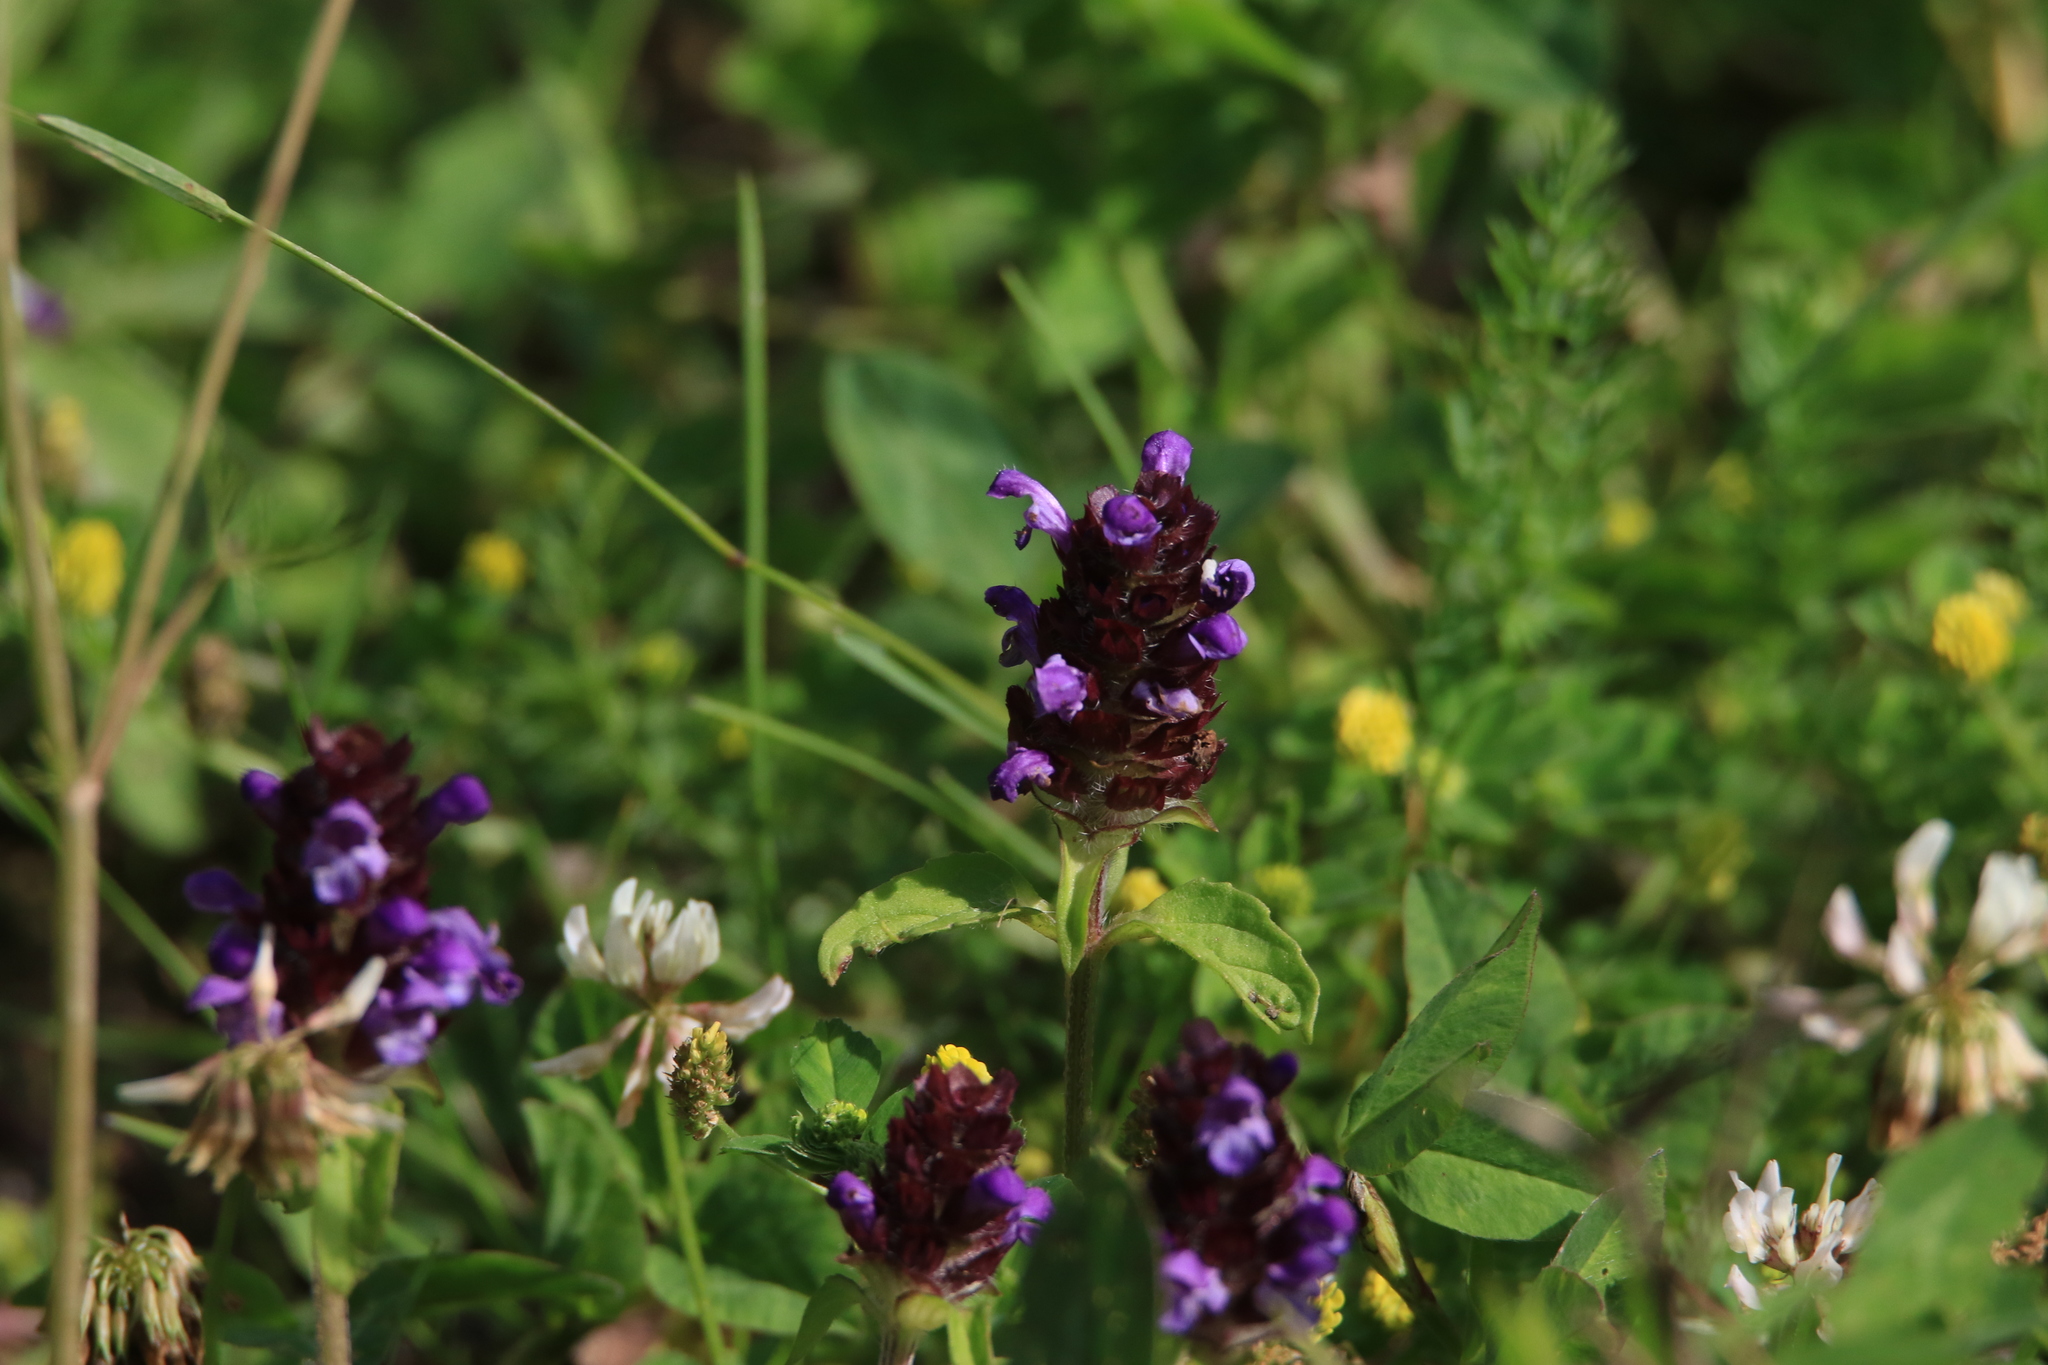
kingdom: Plantae
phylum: Tracheophyta
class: Magnoliopsida
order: Lamiales
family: Lamiaceae
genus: Prunella
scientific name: Prunella vulgaris
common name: Heal-all
